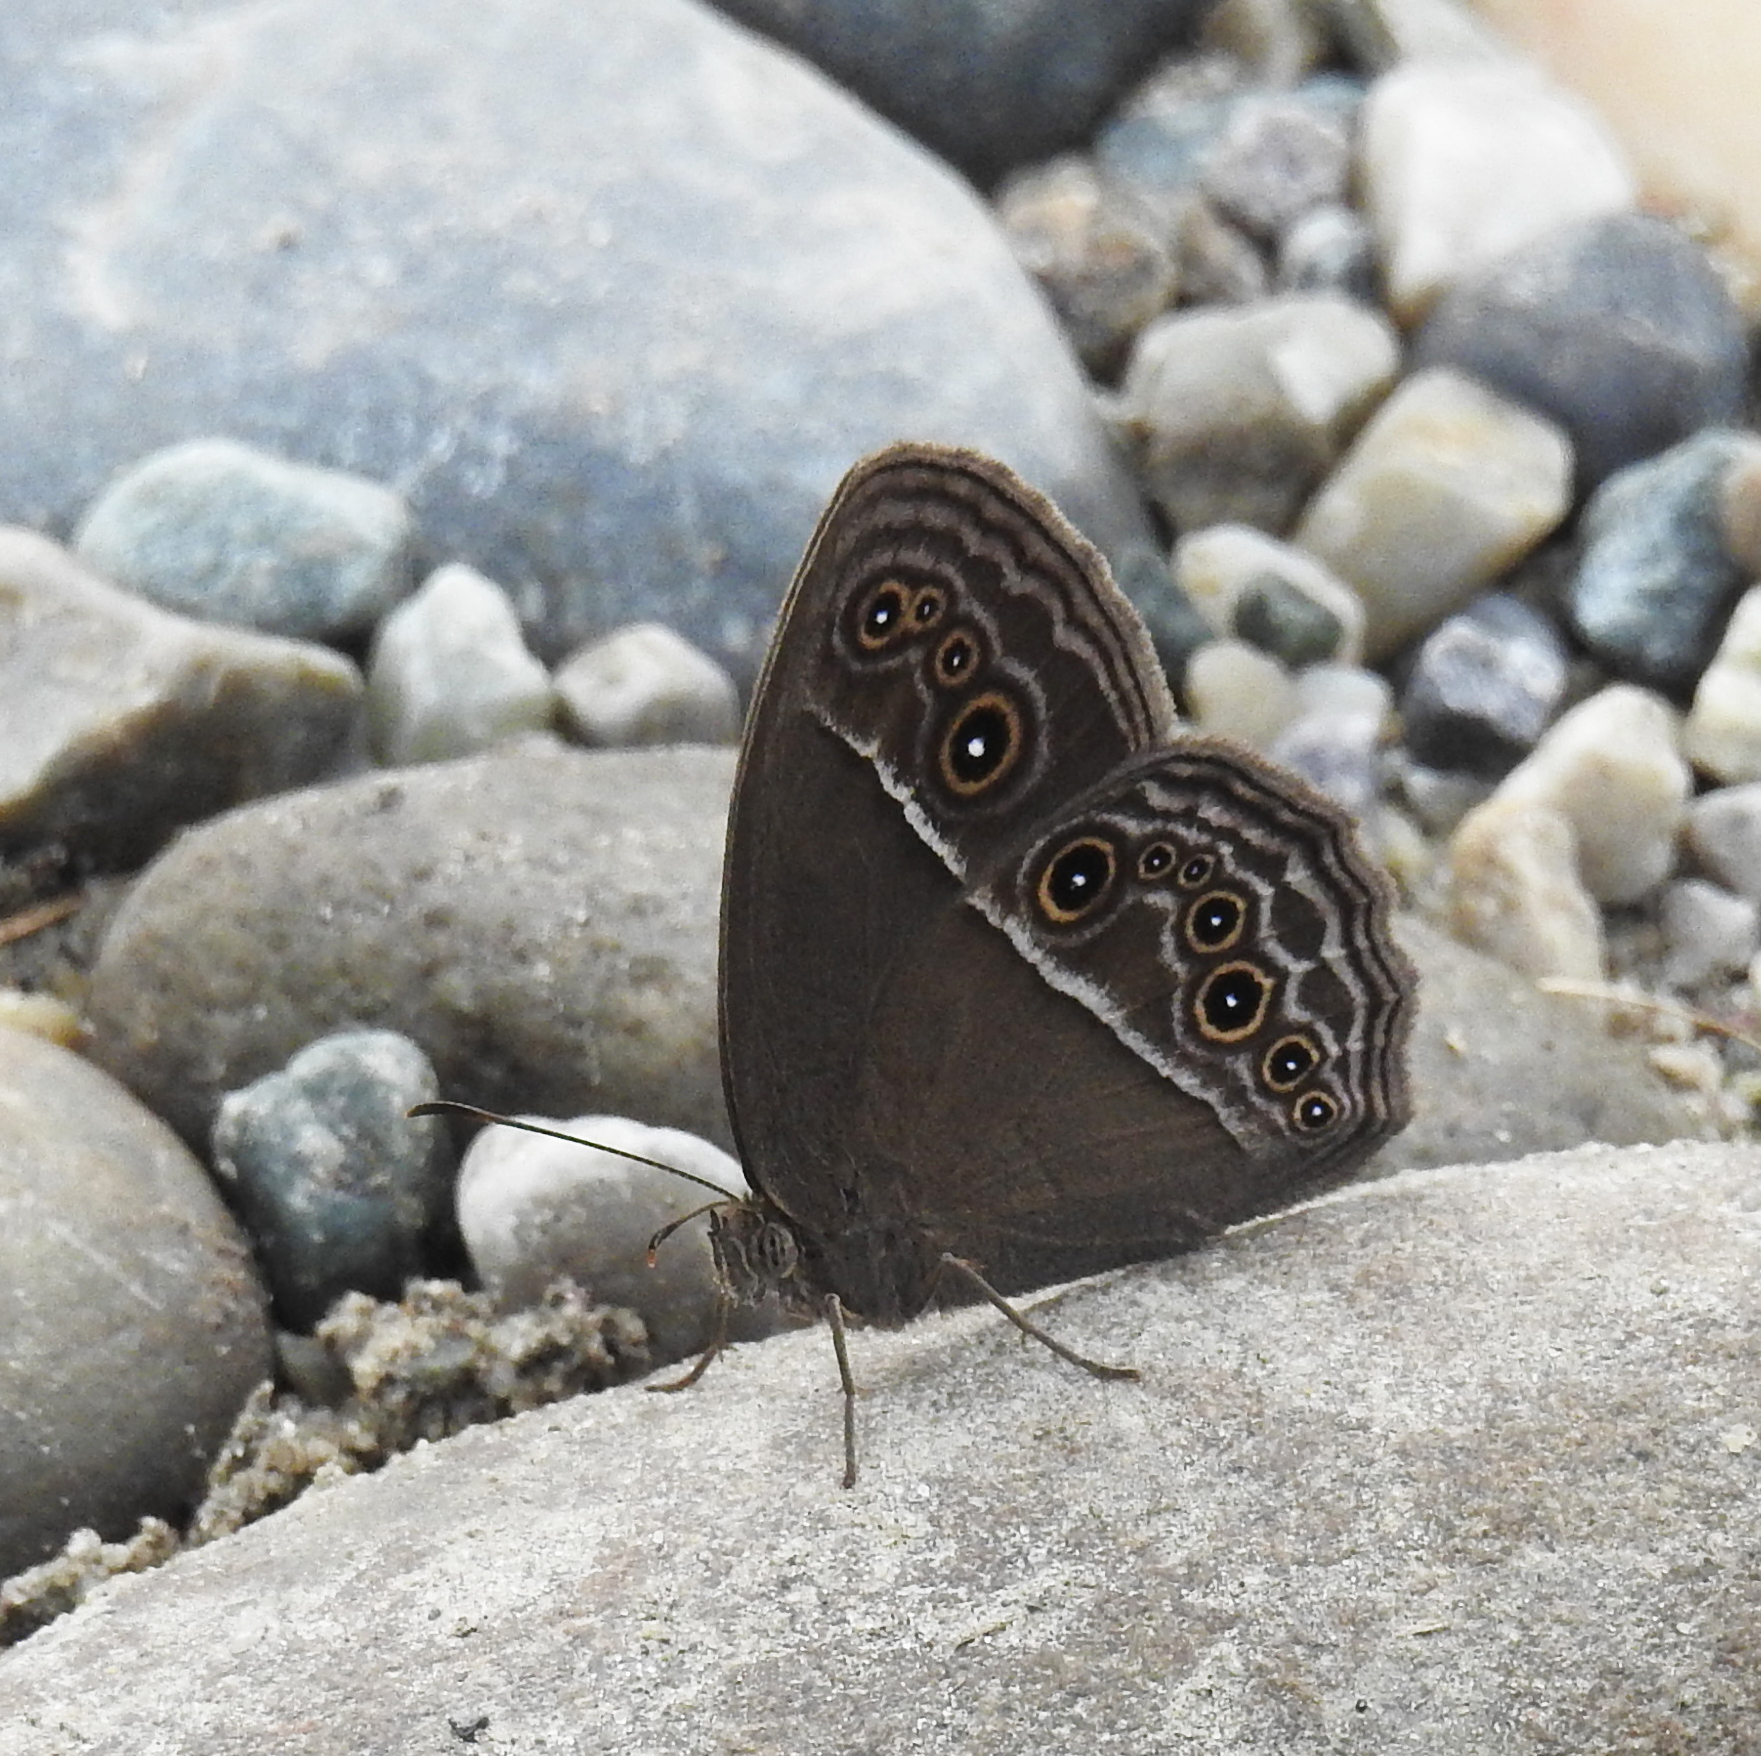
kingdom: Animalia
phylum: Arthropoda
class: Insecta
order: Lepidoptera
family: Nymphalidae
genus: Mycalesis
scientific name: Mycalesis perseus
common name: Dingy bushbrown
